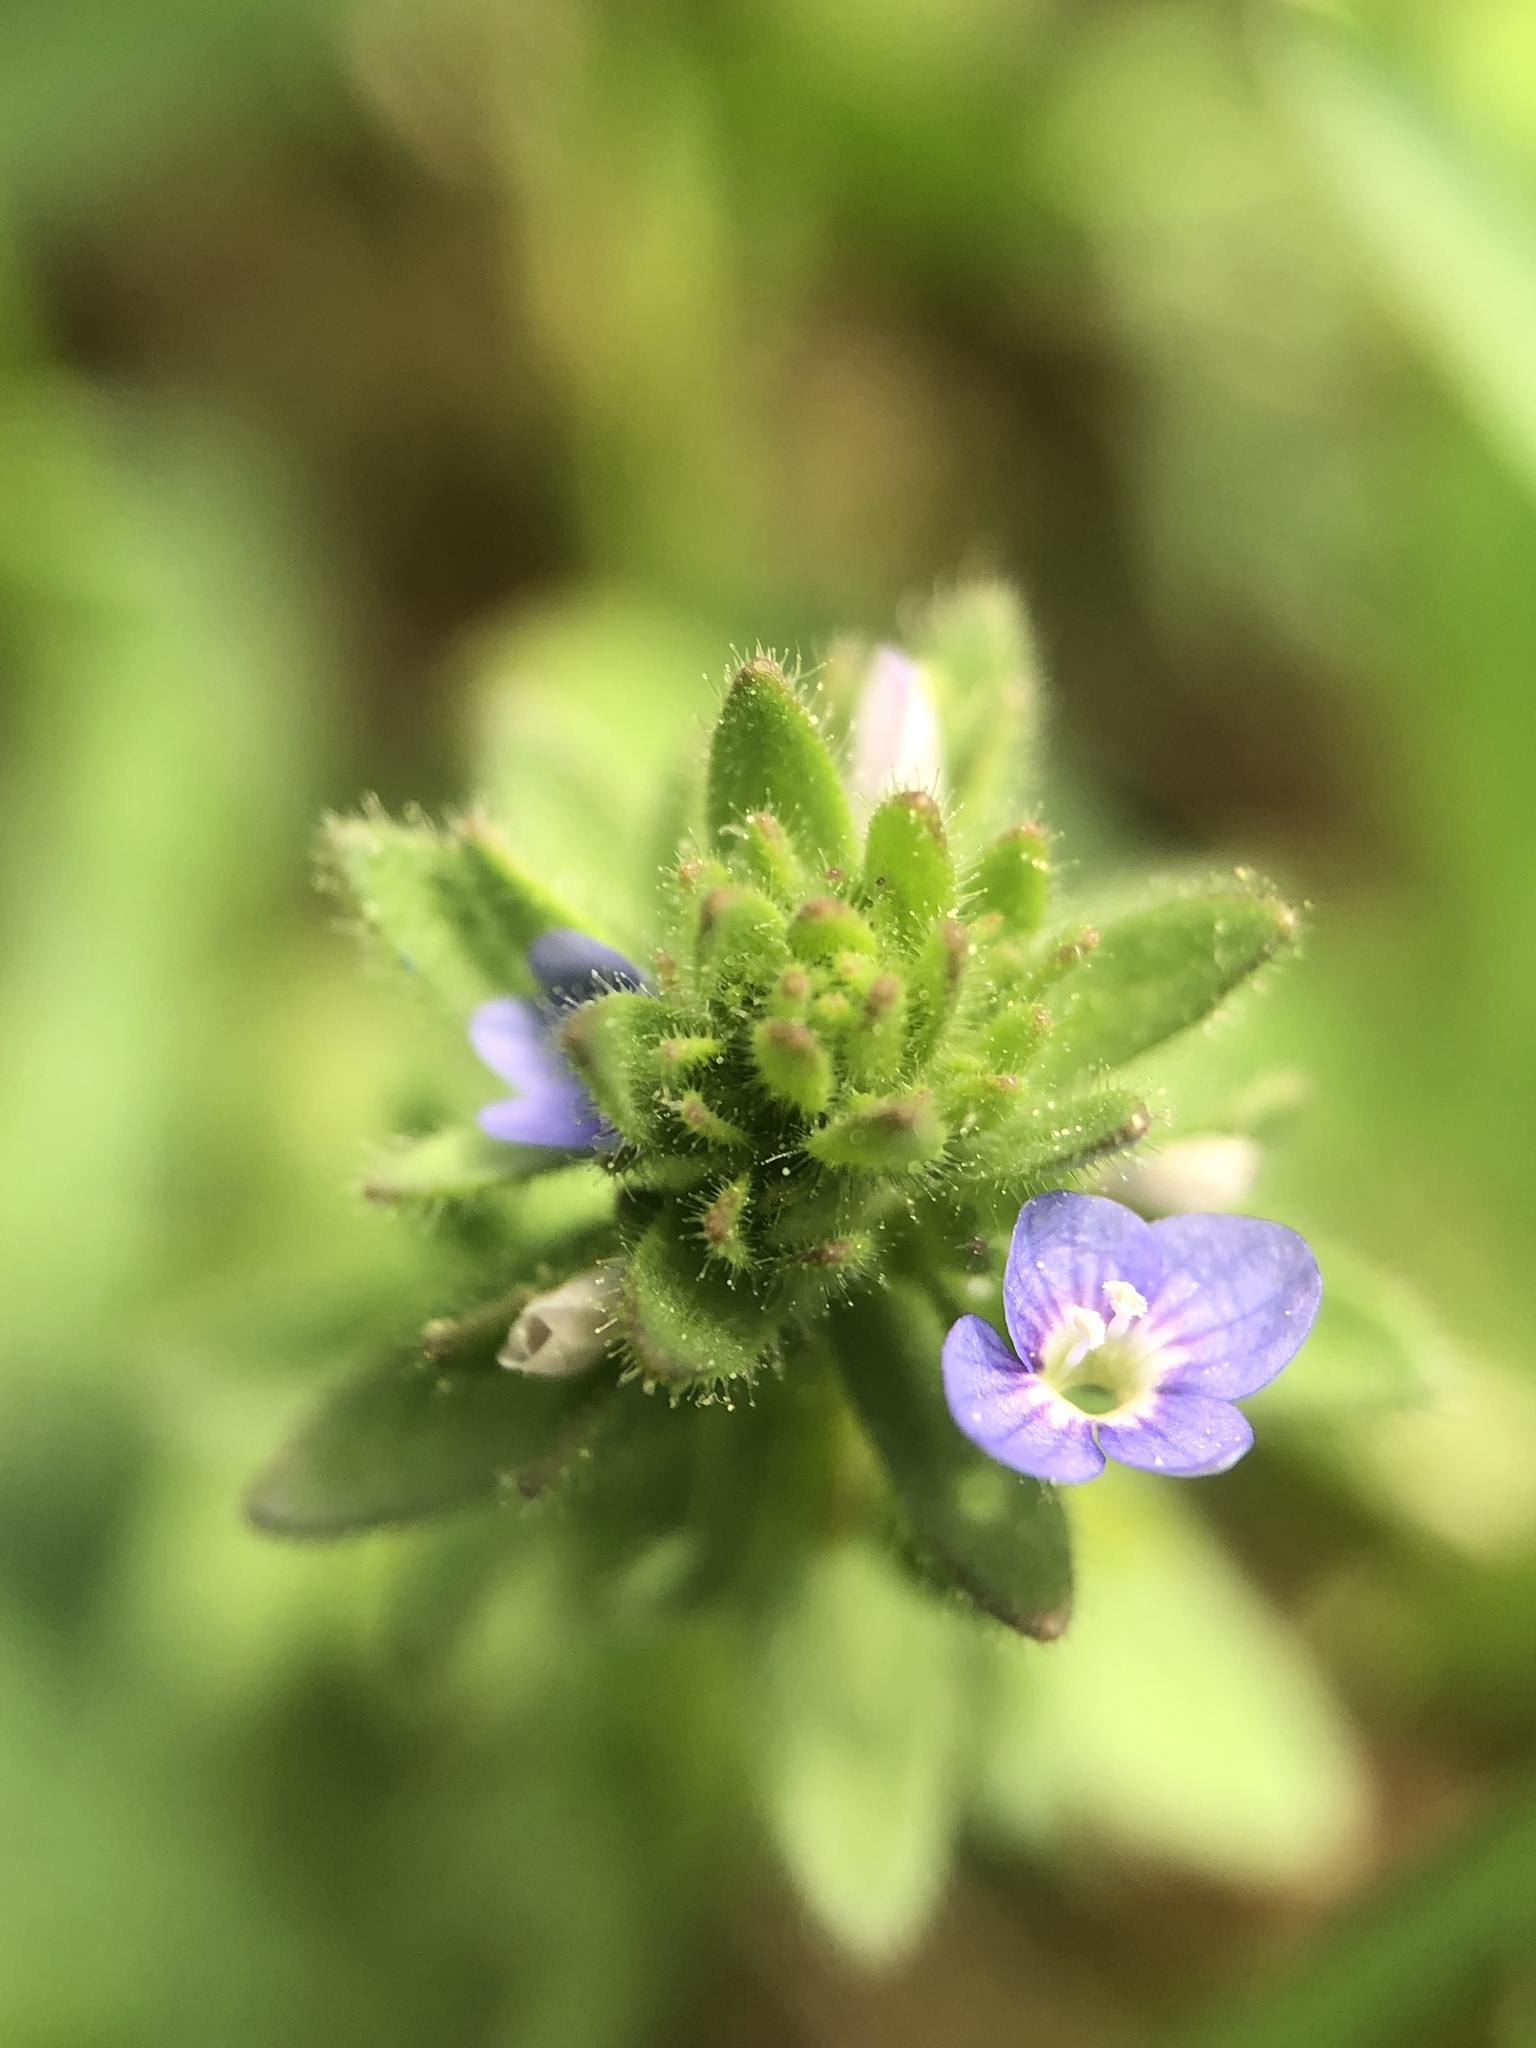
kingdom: Plantae
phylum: Tracheophyta
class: Magnoliopsida
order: Lamiales
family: Plantaginaceae
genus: Veronica
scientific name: Veronica arvensis
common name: Corn speedwell
